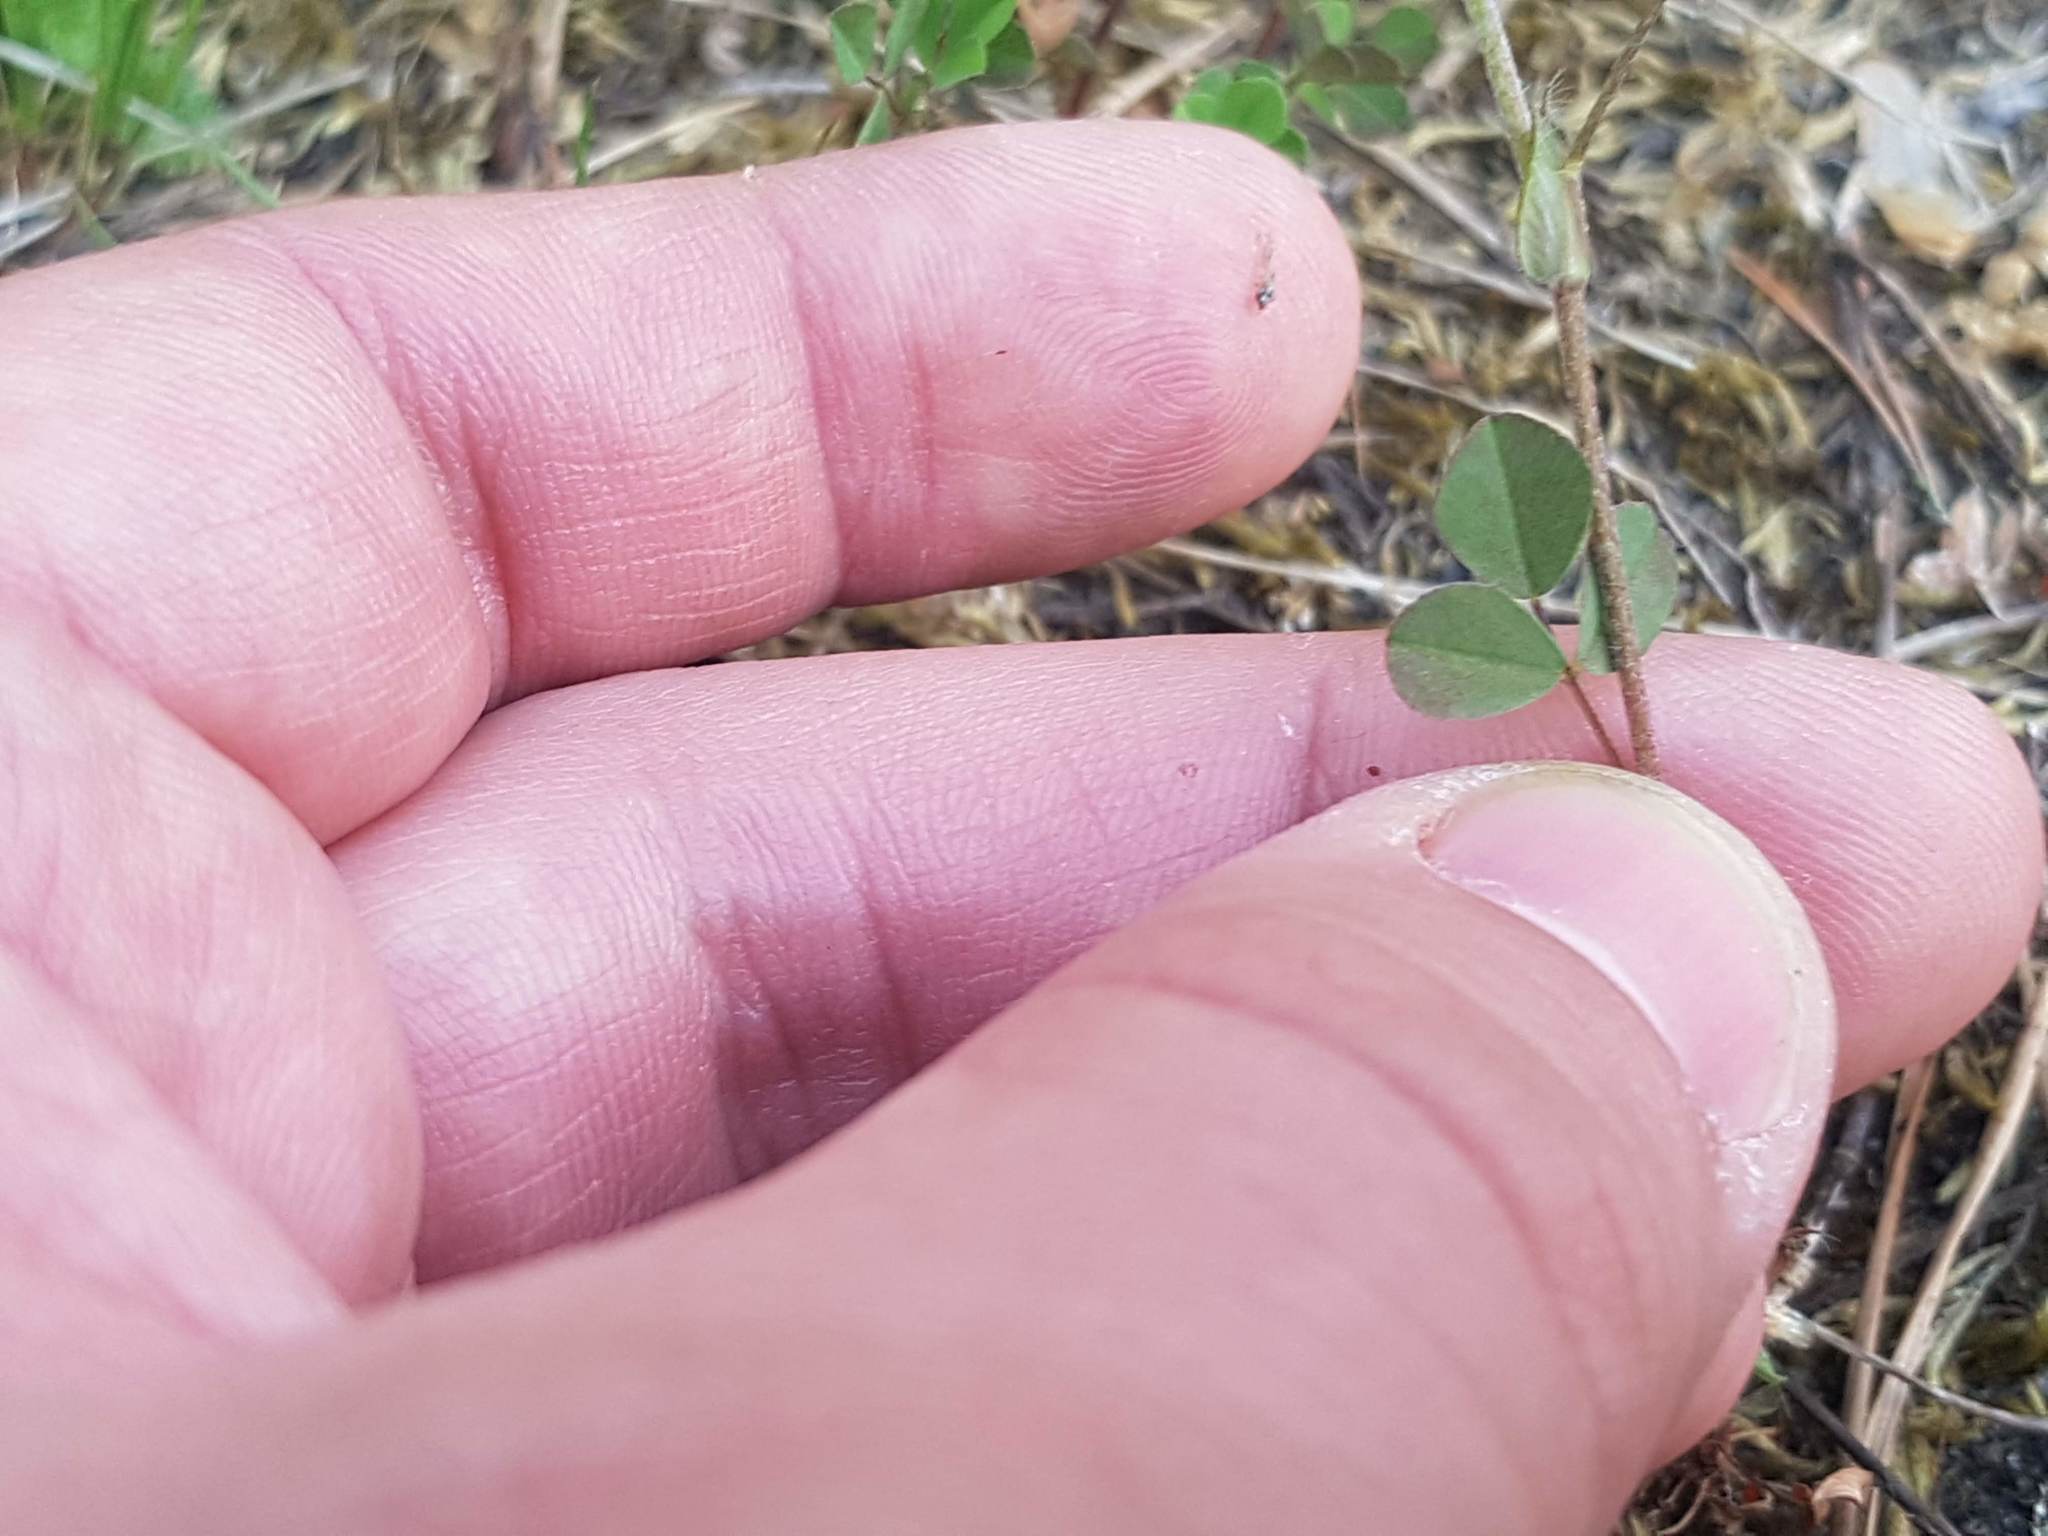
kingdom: Plantae
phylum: Tracheophyta
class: Magnoliopsida
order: Fabales
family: Fabaceae
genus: Trifolium
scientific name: Trifolium campestre
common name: Field clover
